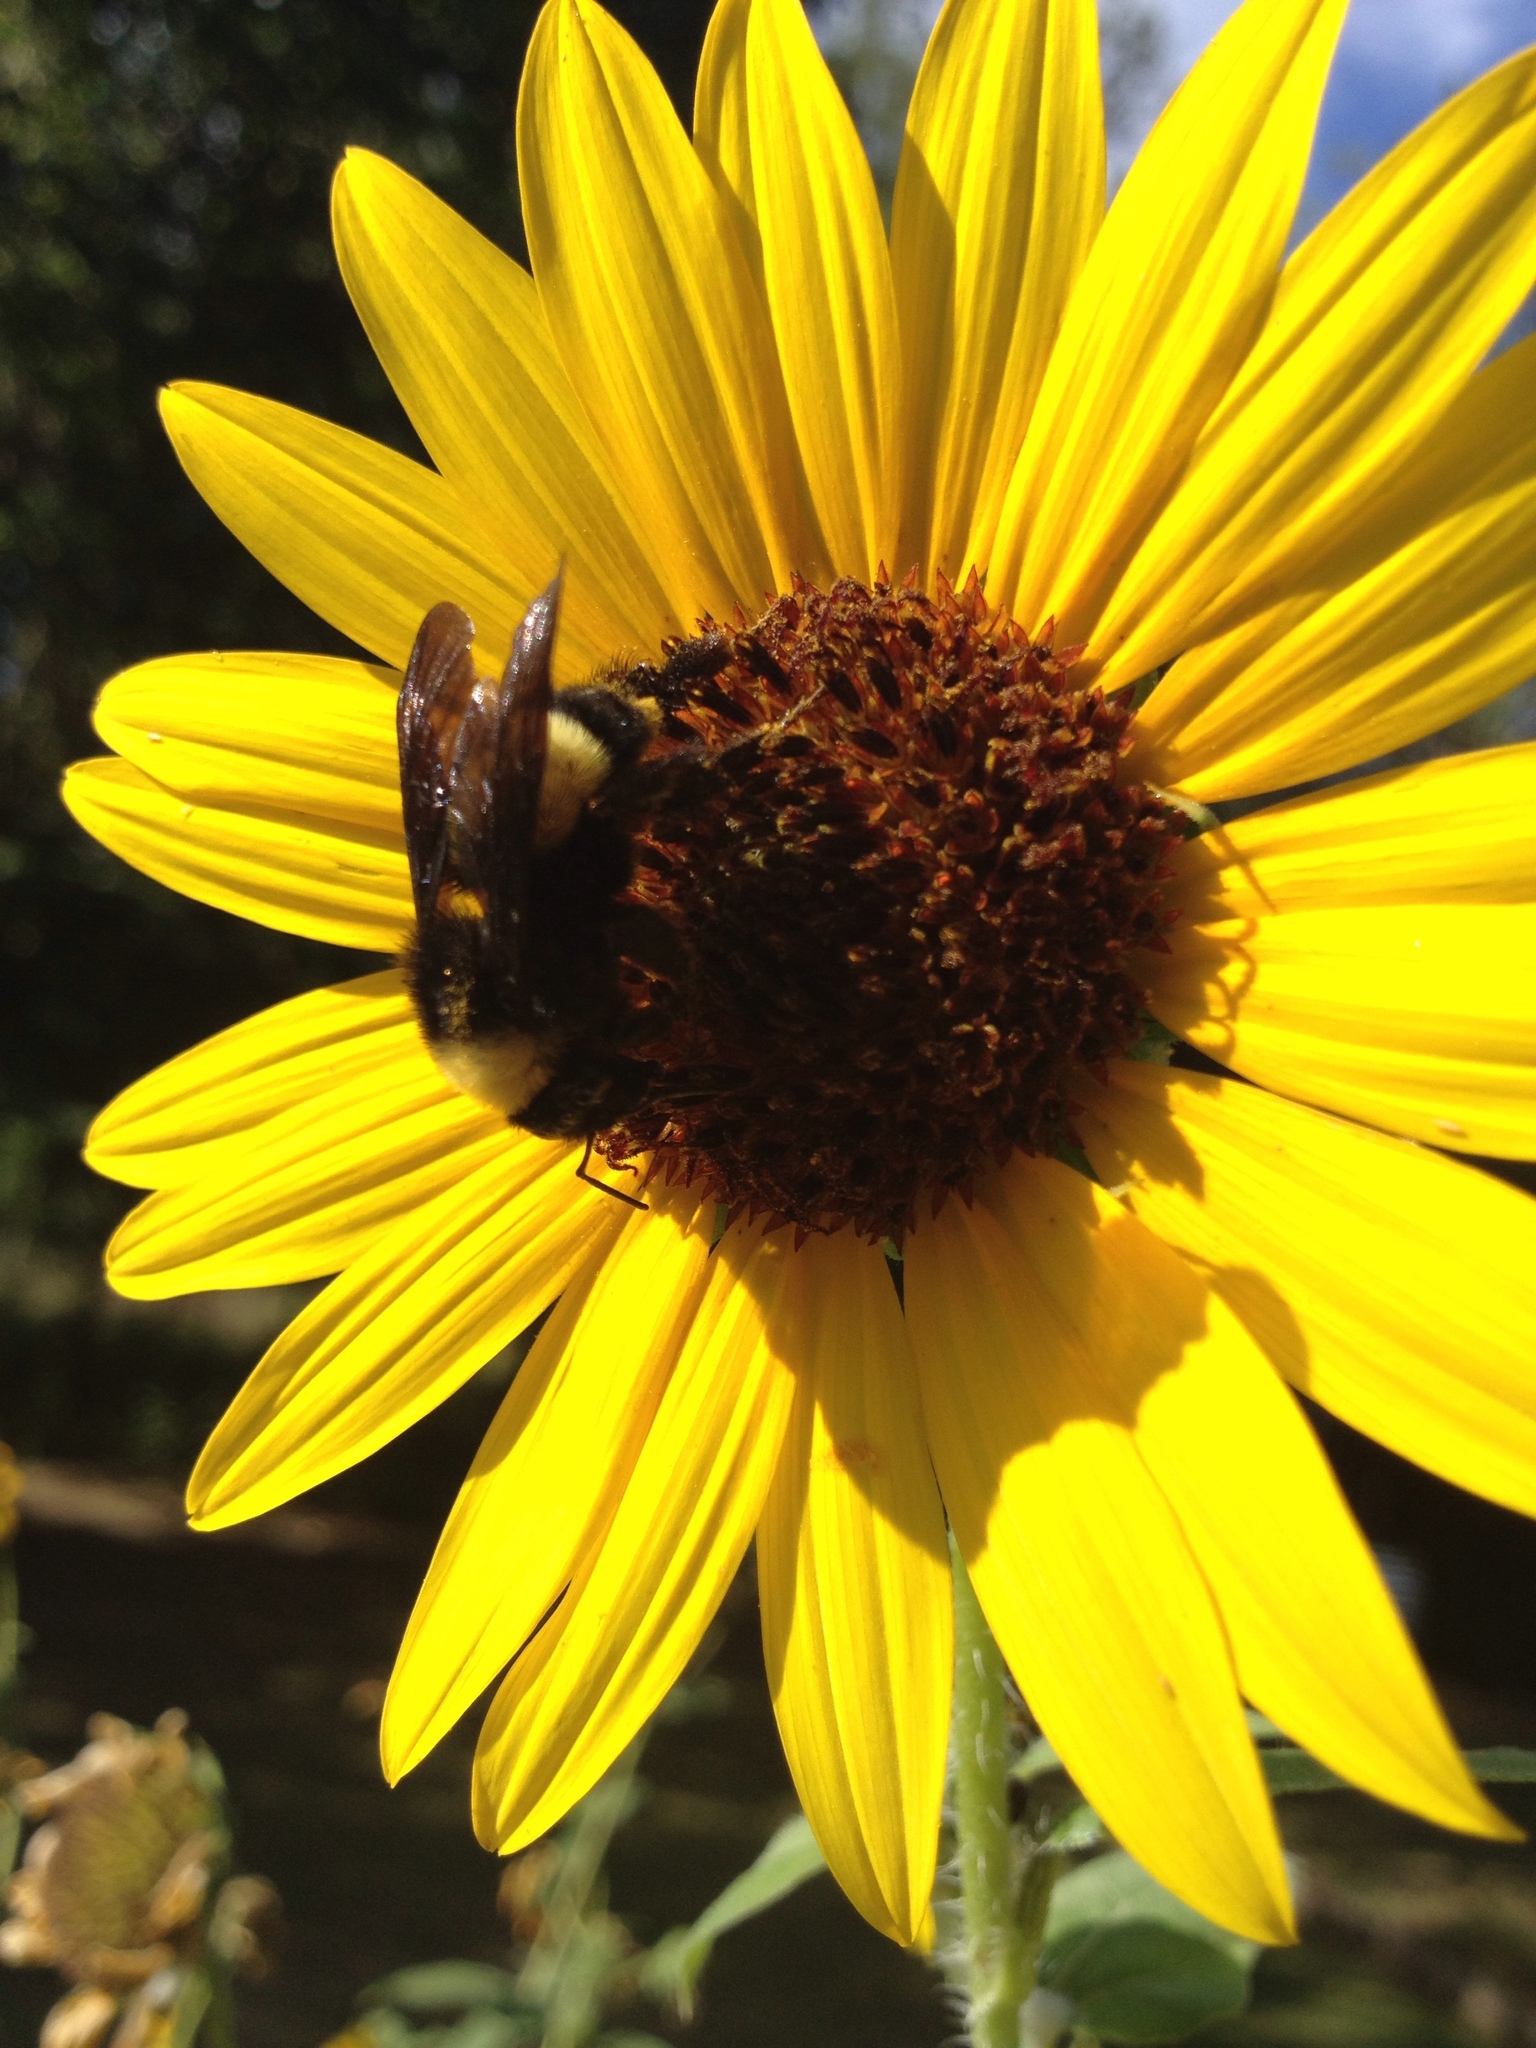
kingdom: Animalia
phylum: Arthropoda
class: Insecta
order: Hymenoptera
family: Apidae
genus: Bombus
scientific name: Bombus pensylvanicus
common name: Bumble bee
